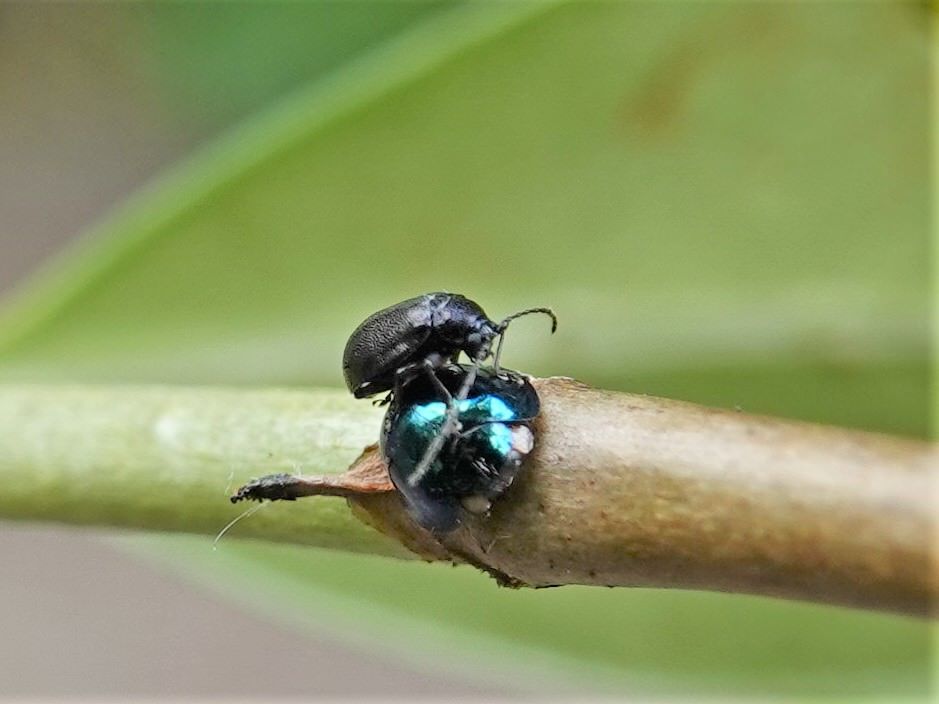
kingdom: Animalia
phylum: Arthropoda
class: Insecta
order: Coleoptera
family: Coccinellidae
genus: Halmus
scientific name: Halmus chalybeus
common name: Steel blue ladybird beetle
